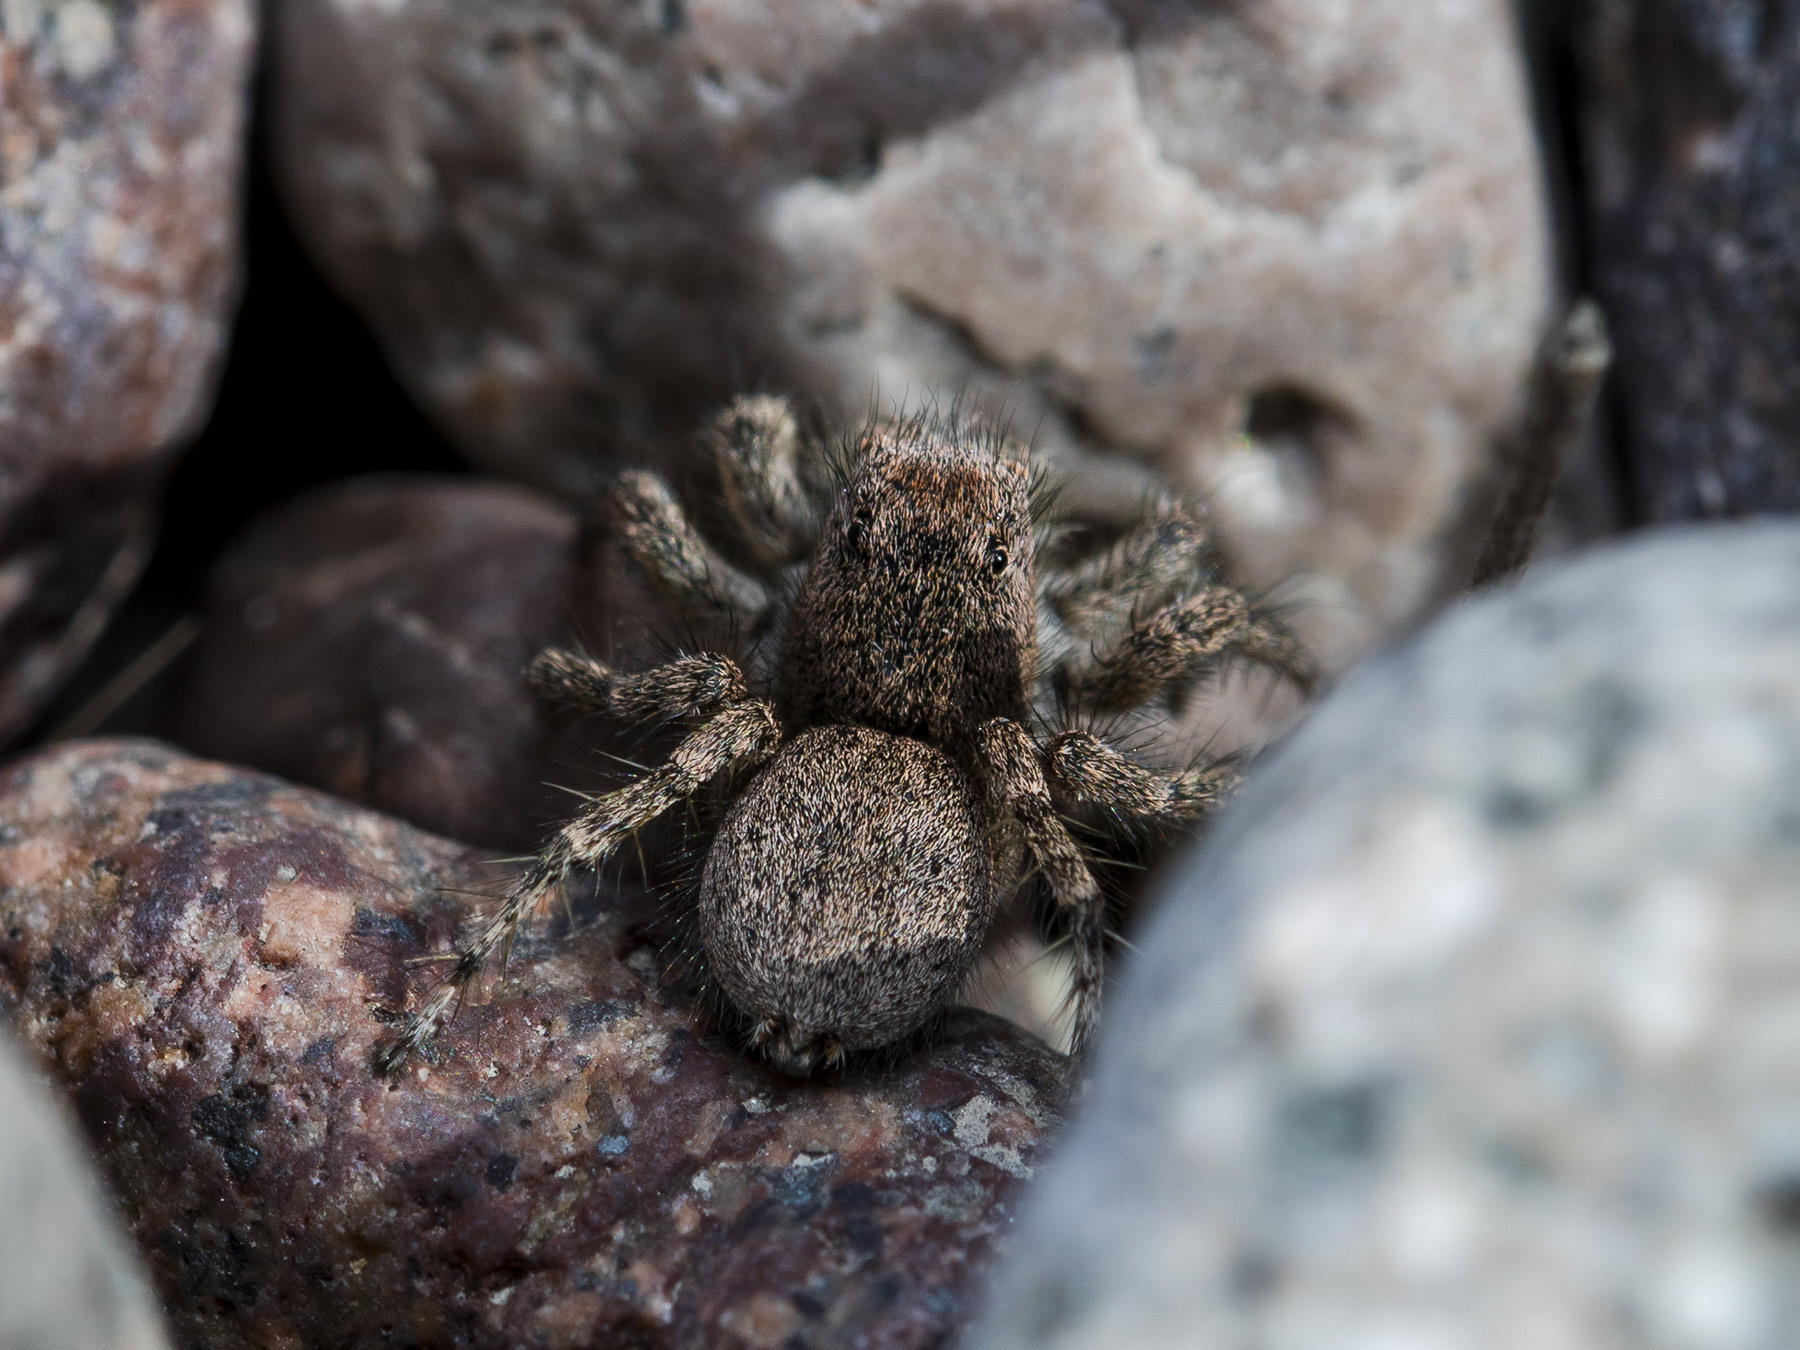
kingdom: Animalia
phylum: Arthropoda
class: Arachnida
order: Araneae
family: Salticidae
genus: Aelurillus
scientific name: Aelurillus dubatolovi
